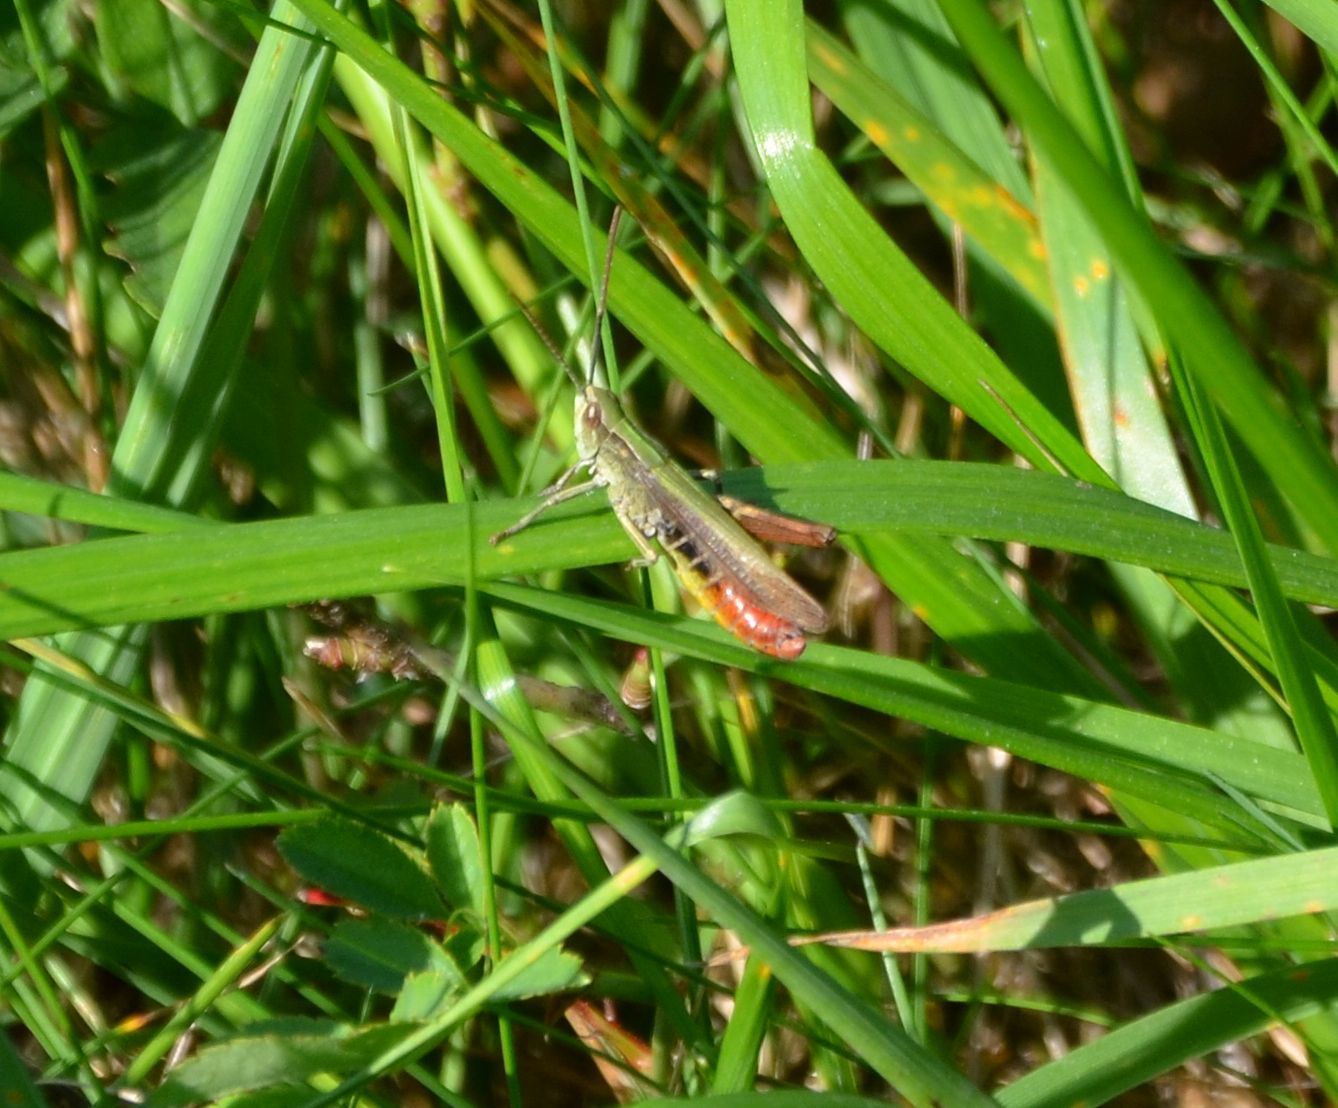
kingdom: Animalia
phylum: Arthropoda
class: Insecta
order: Orthoptera
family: Acrididae
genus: Chorthippus
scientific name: Chorthippus dorsatus
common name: Steppe grasshopper
